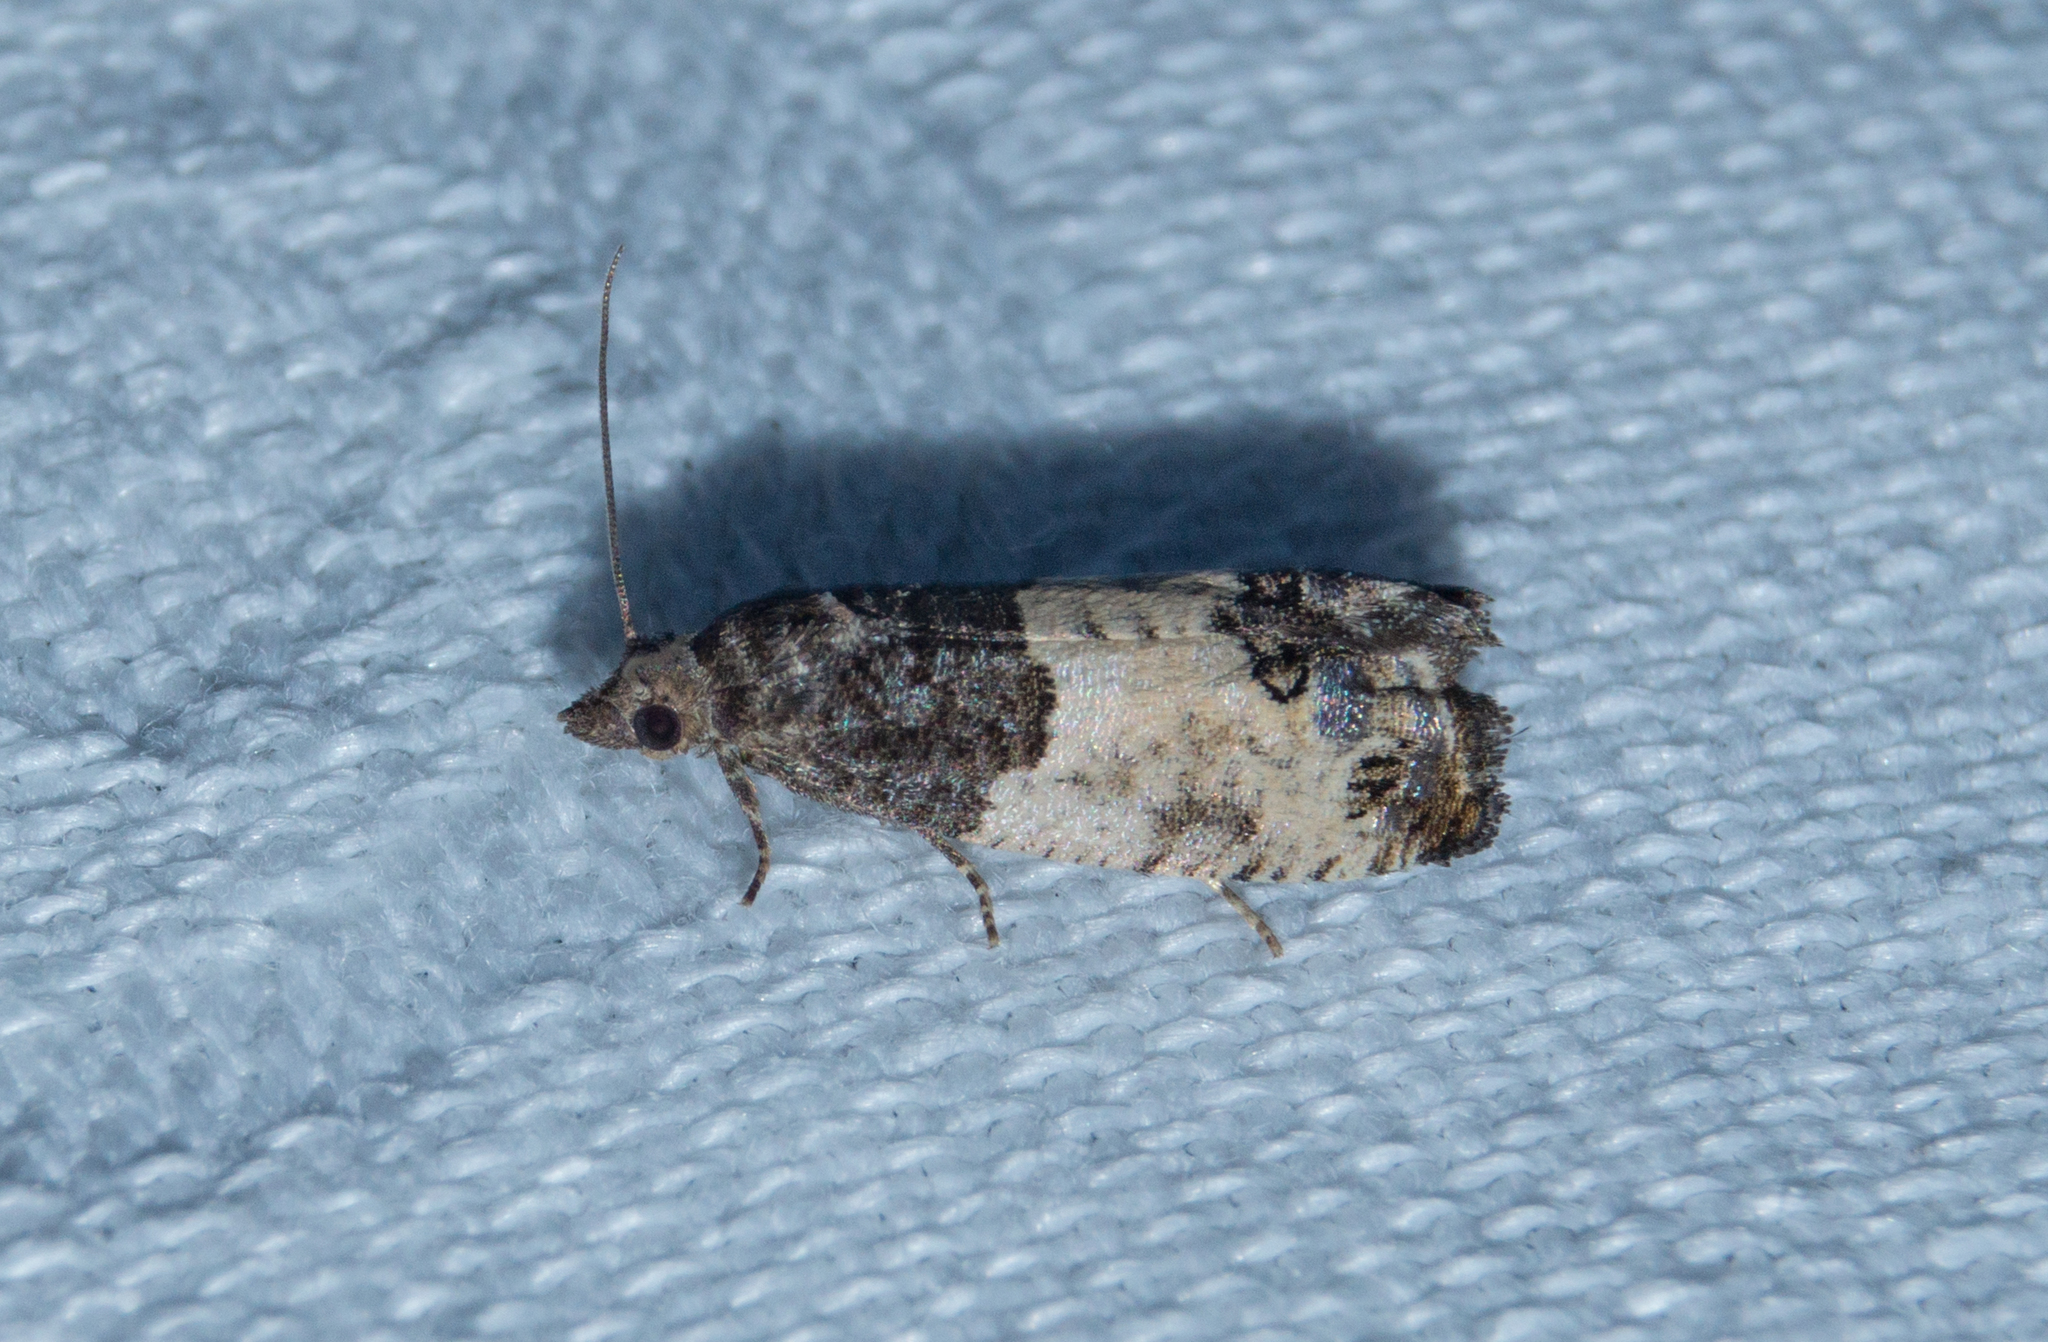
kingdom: Animalia
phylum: Arthropoda
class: Insecta
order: Lepidoptera
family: Tortricidae
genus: Spilonota
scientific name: Spilonota ocellana
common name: Bud moth
